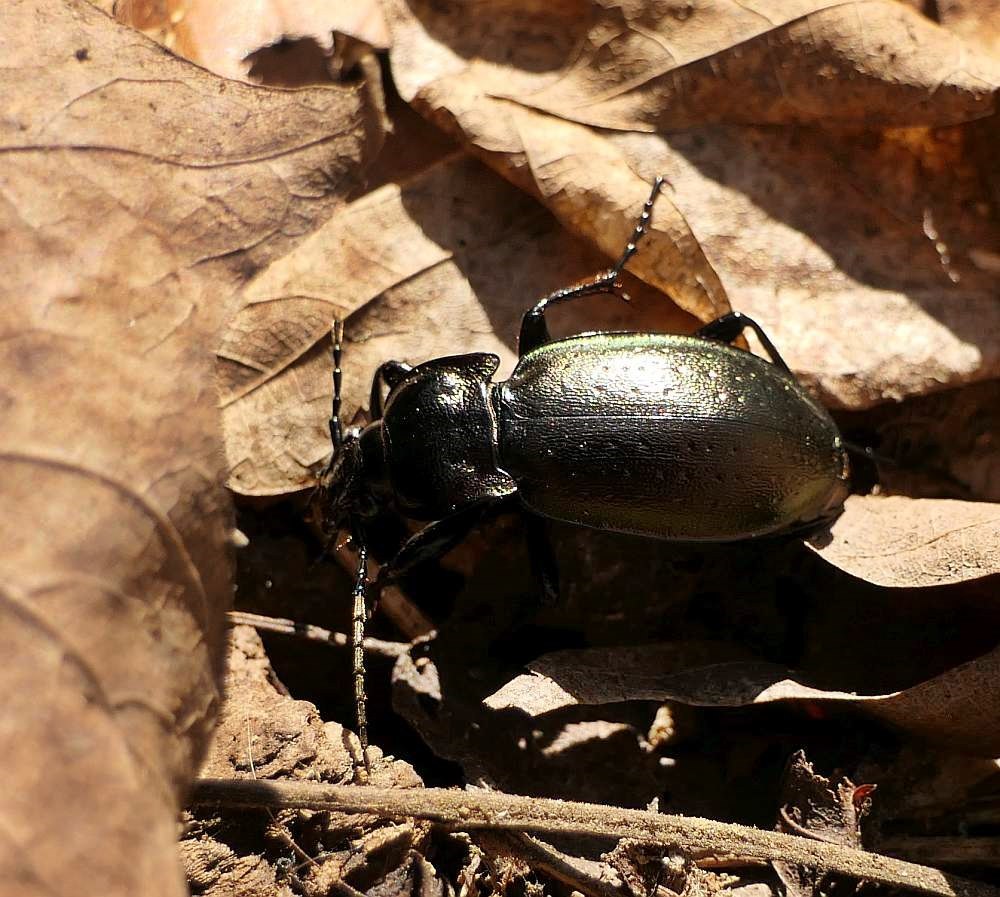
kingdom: Animalia
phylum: Arthropoda
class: Insecta
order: Coleoptera
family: Carabidae
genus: Carabus
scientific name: Carabus nemoralis
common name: European ground beetle
